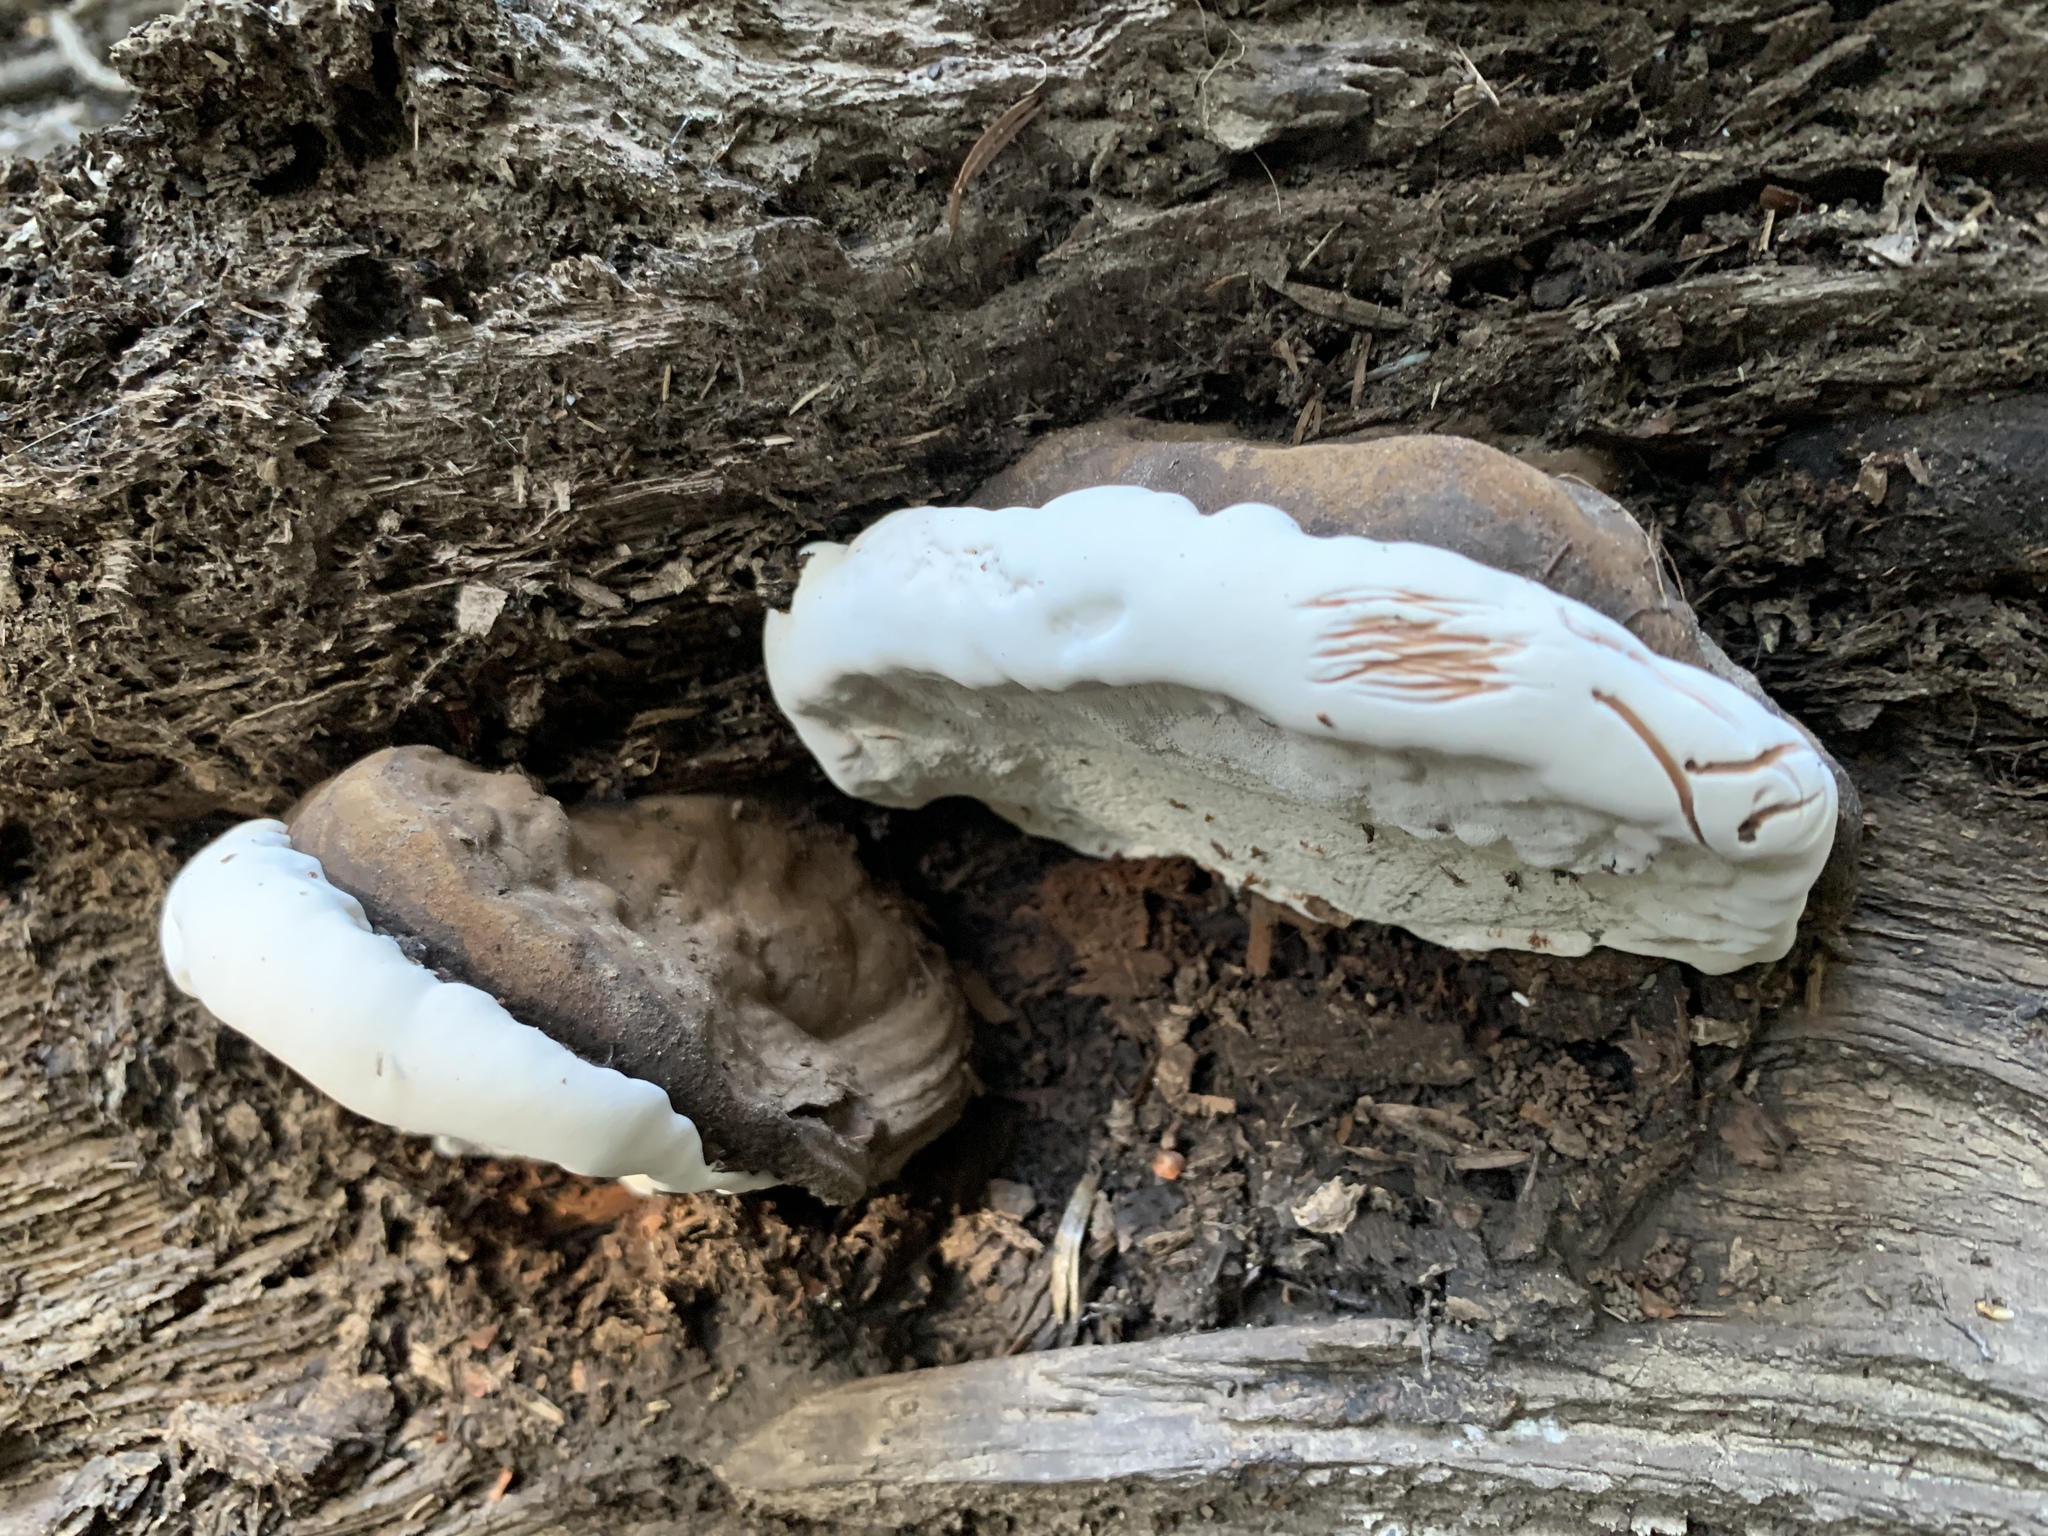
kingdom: Fungi
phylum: Basidiomycota
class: Agaricomycetes
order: Polyporales
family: Polyporaceae
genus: Ganoderma
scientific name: Ganoderma brownii
